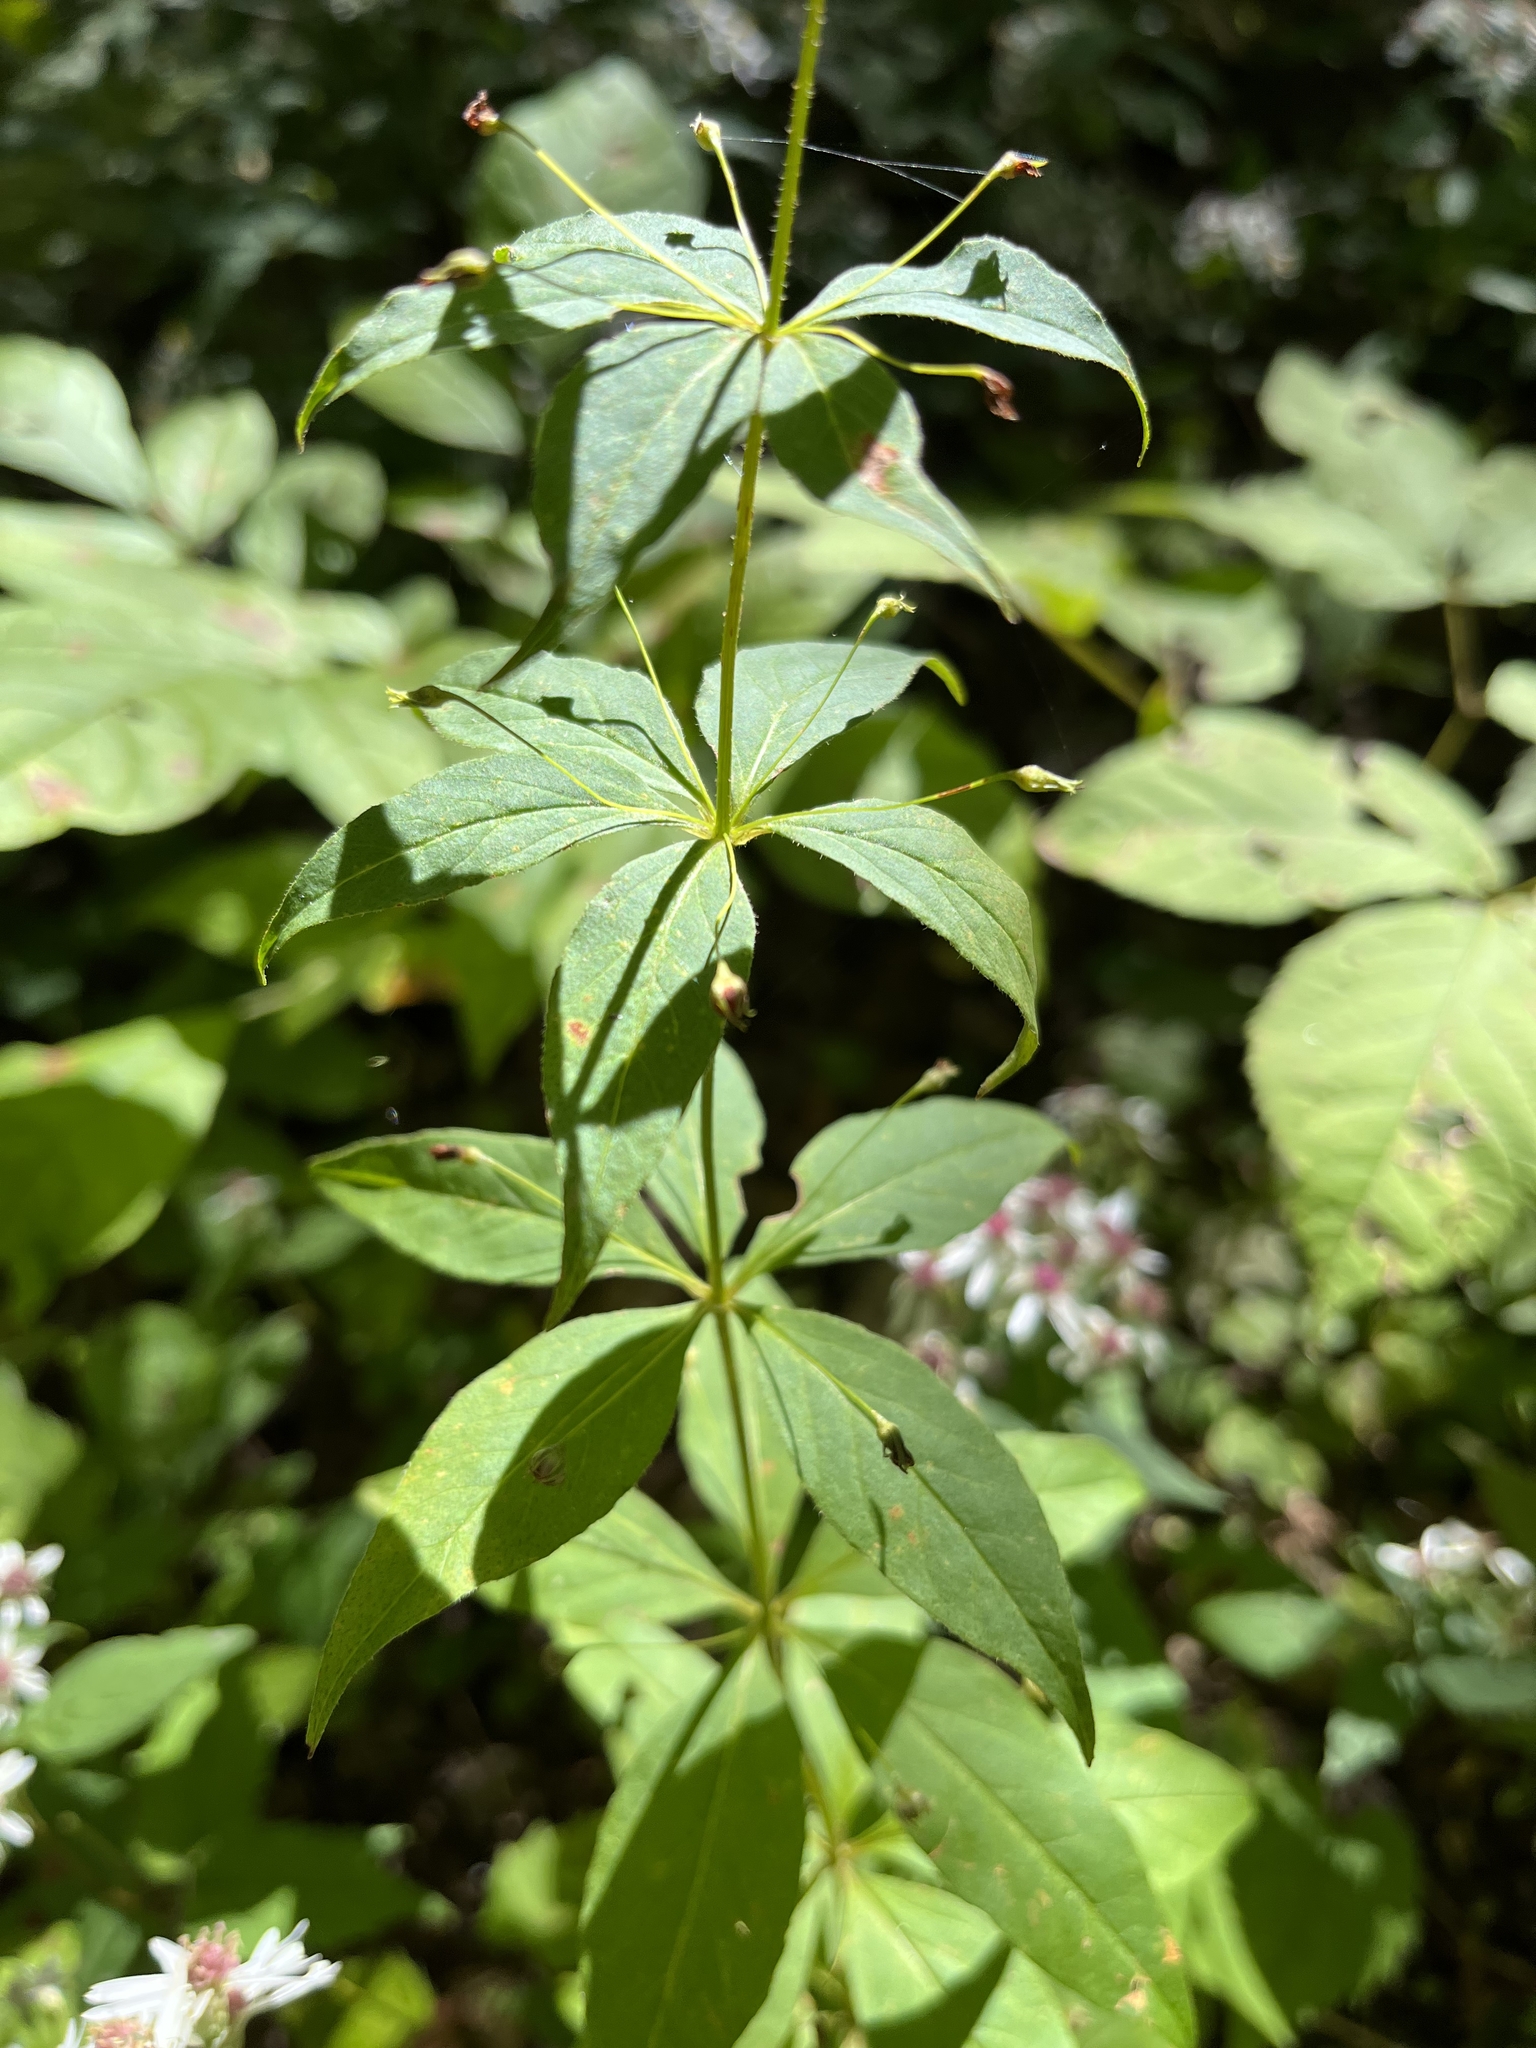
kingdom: Plantae
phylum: Tracheophyta
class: Magnoliopsida
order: Ericales
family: Primulaceae
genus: Lysimachia
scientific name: Lysimachia quadrifolia
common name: Whorled loosestrife
